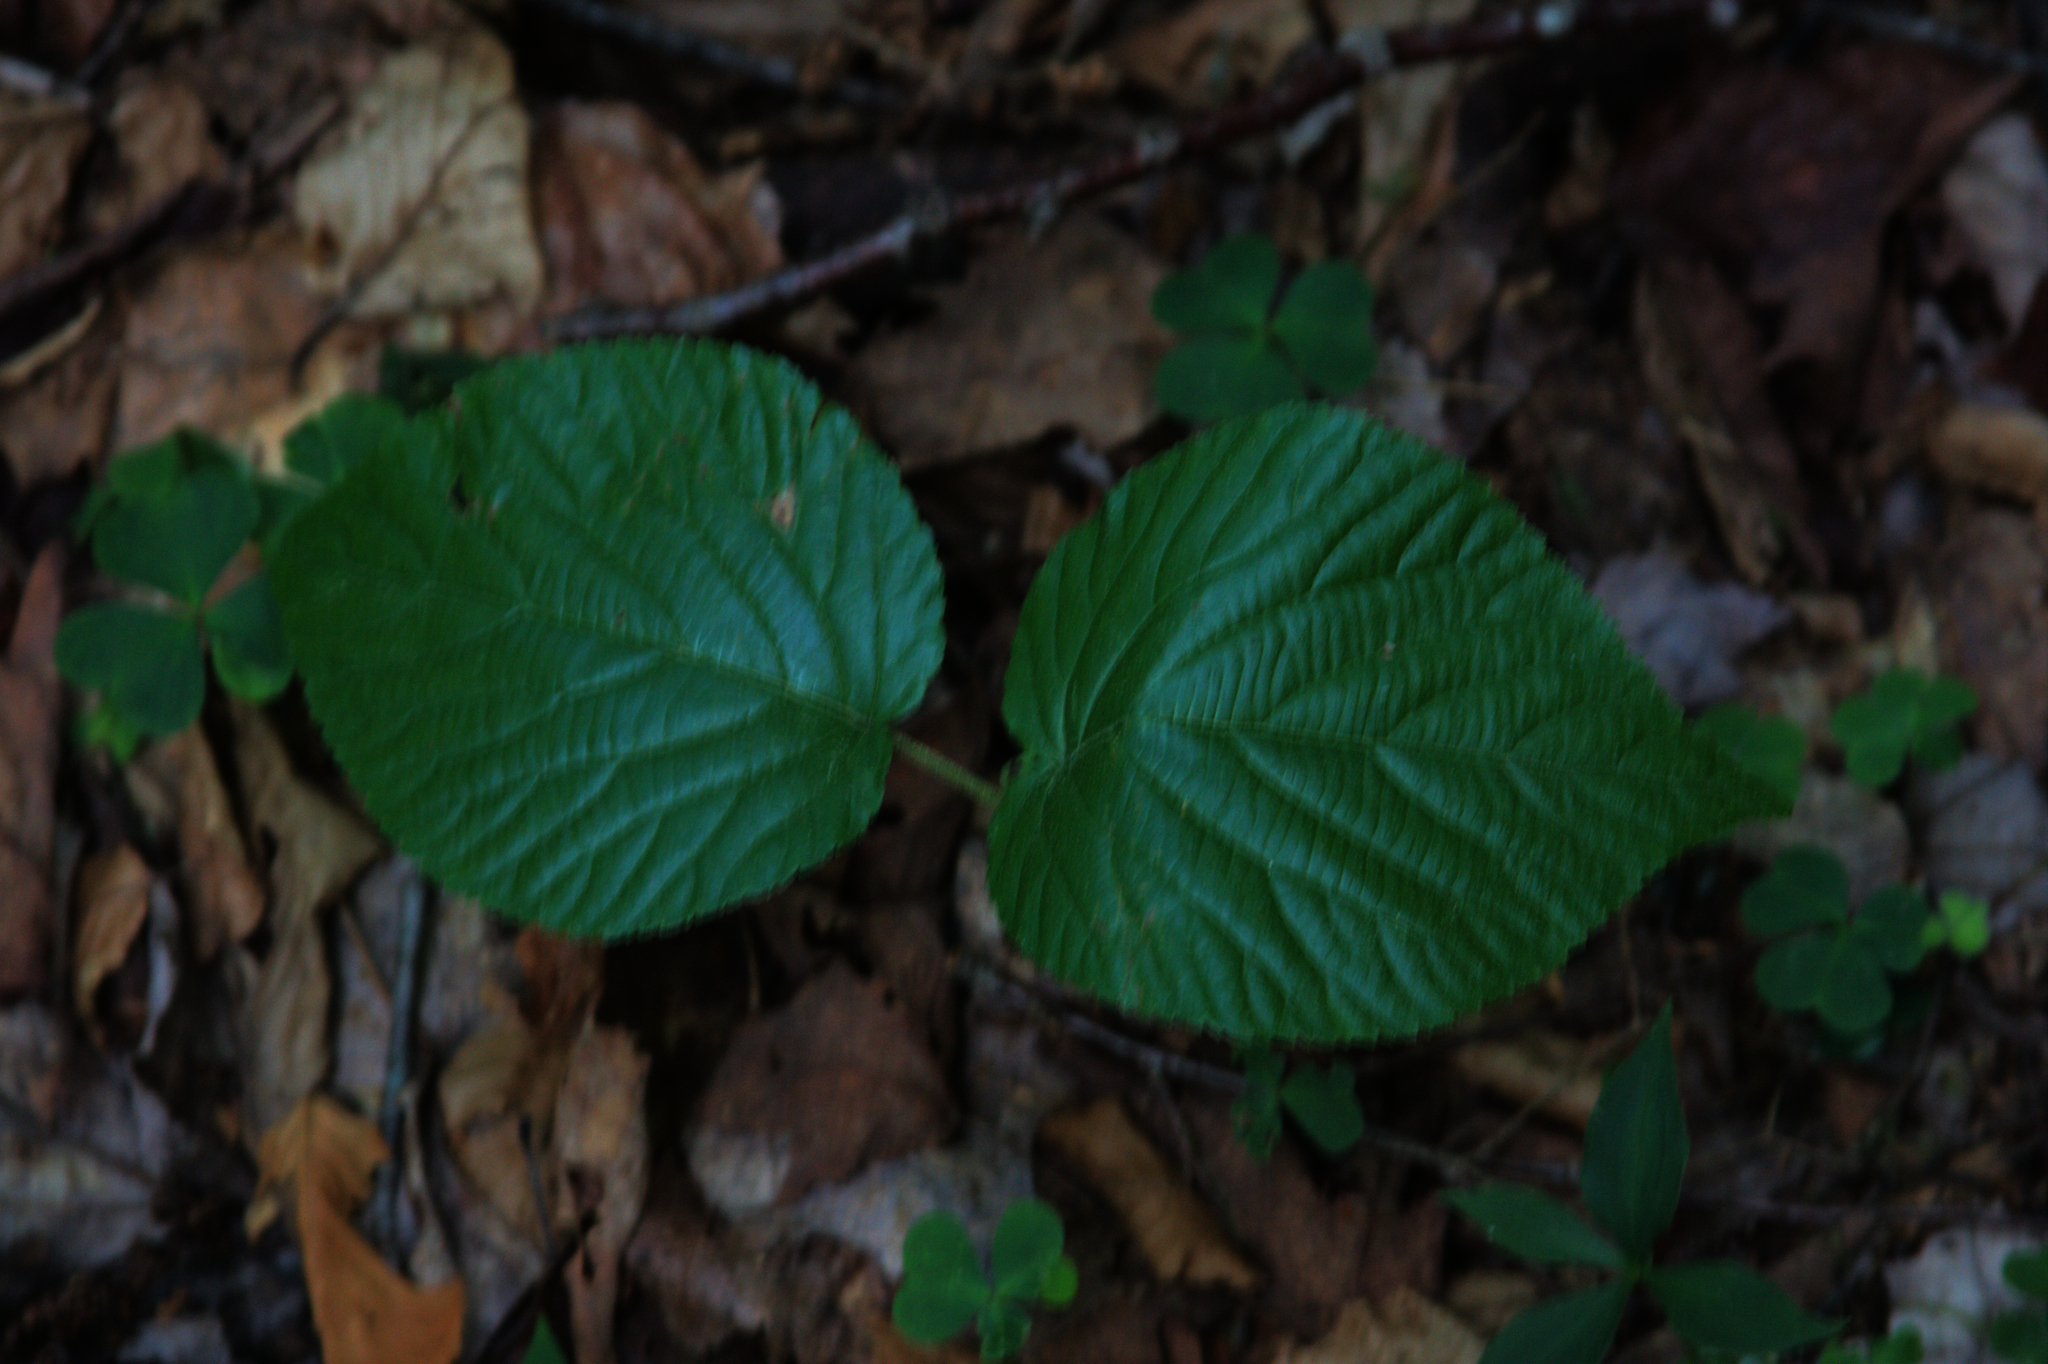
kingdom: Plantae
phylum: Tracheophyta
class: Magnoliopsida
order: Dipsacales
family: Viburnaceae
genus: Viburnum
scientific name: Viburnum lantanoides
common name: Hobblebush
